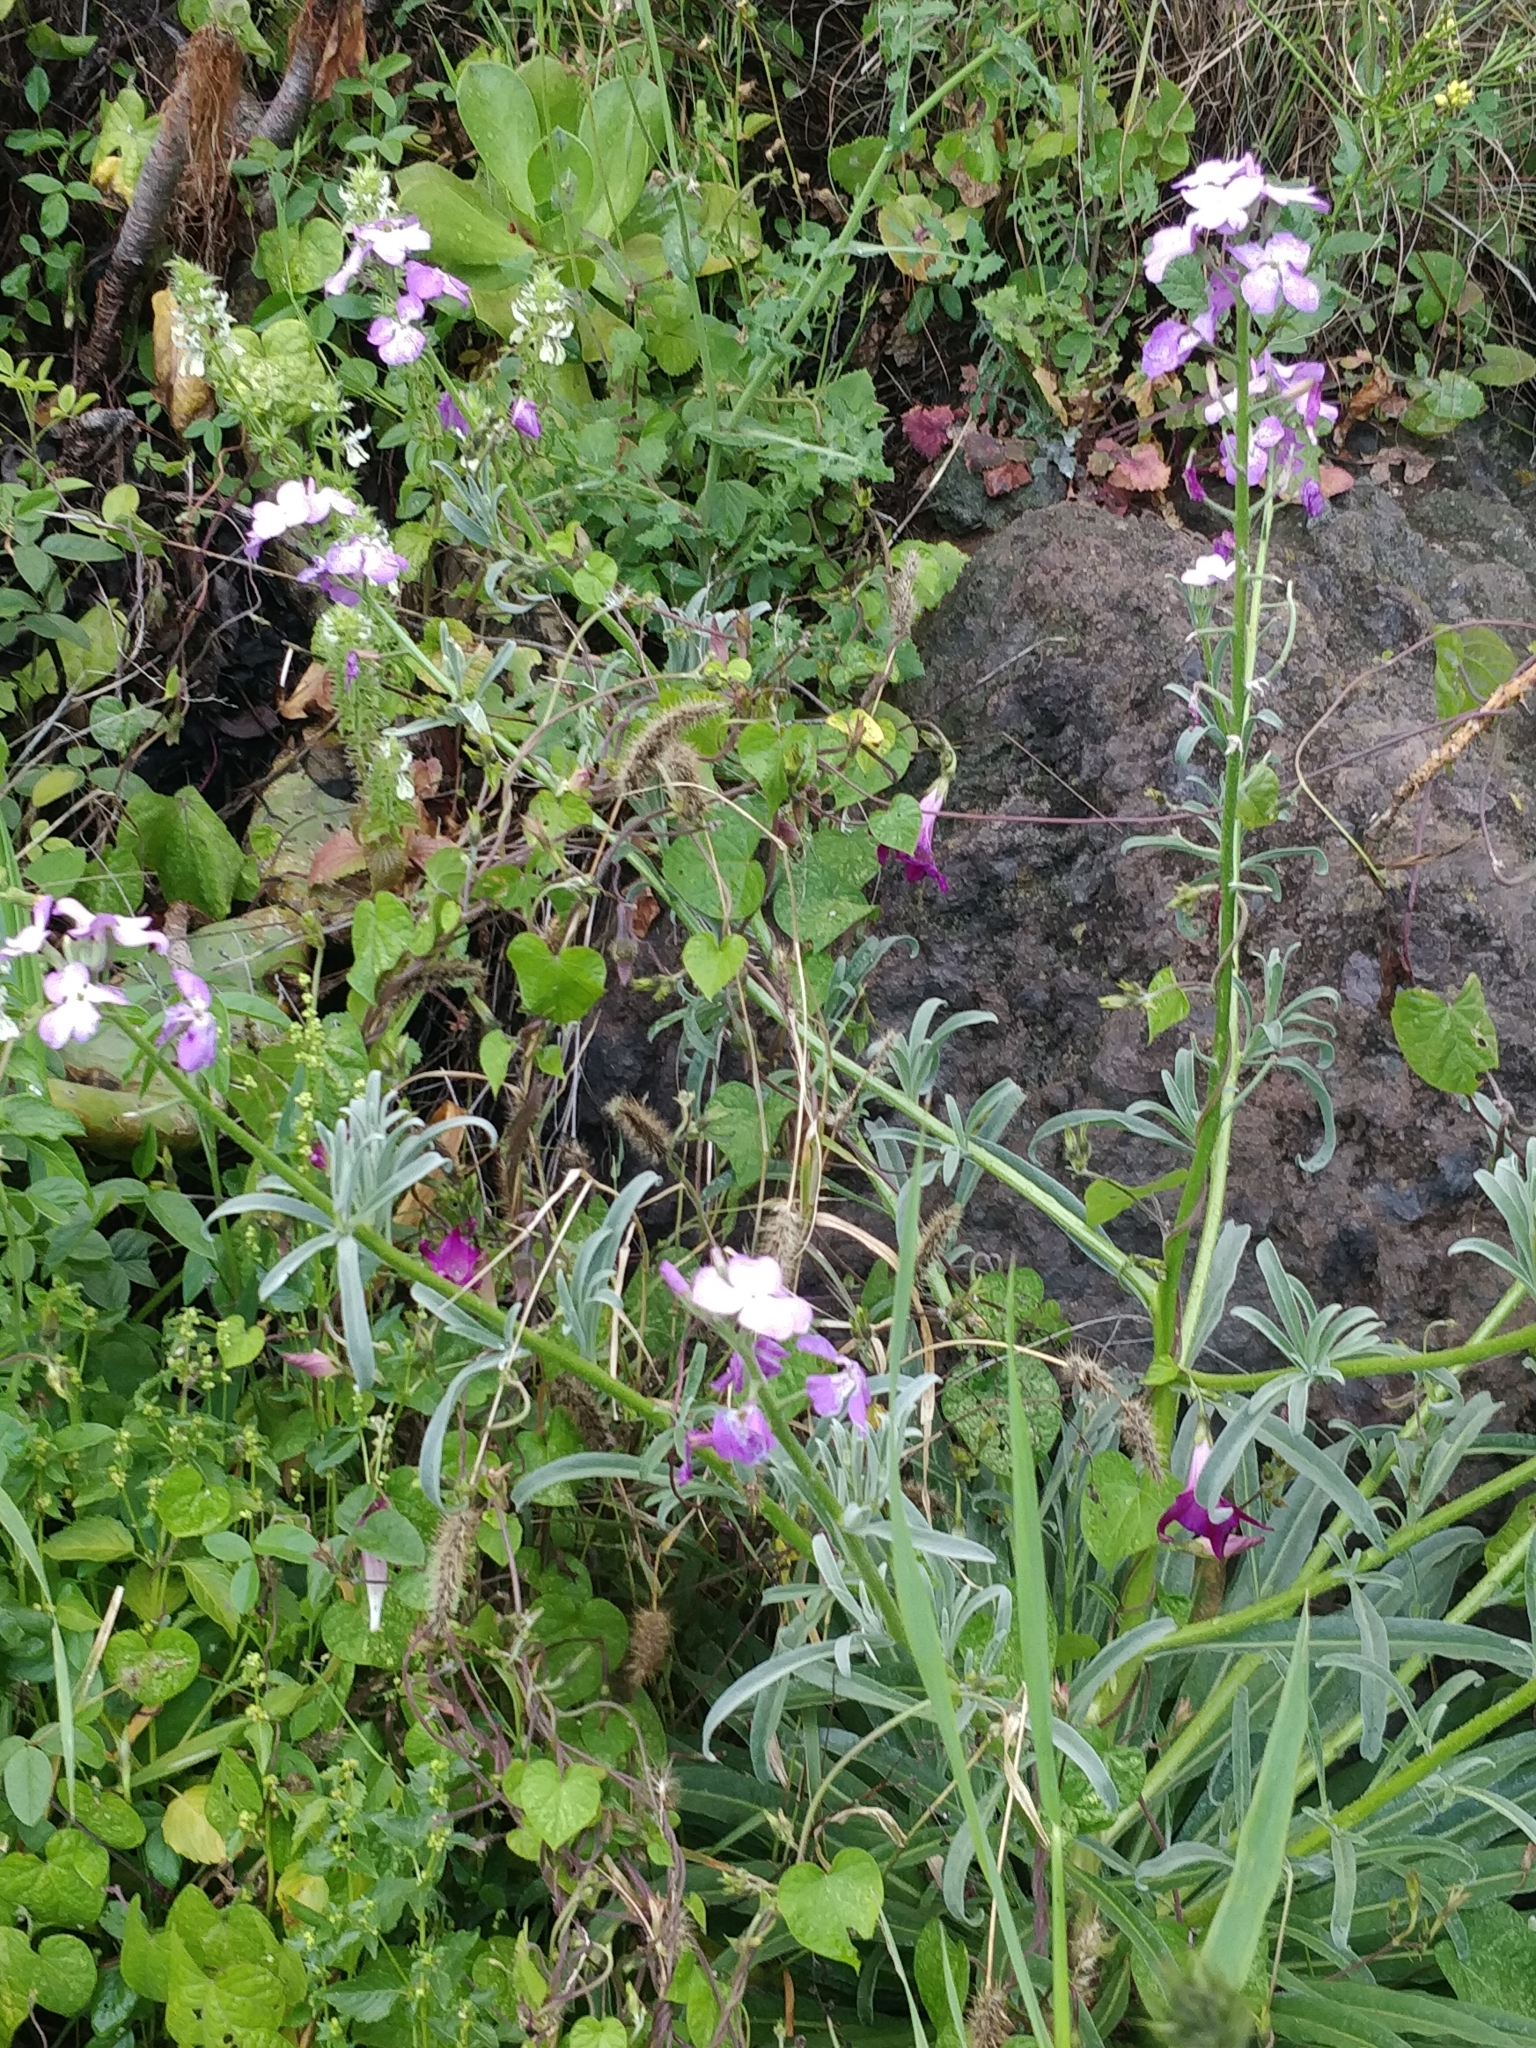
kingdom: Plantae
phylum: Tracheophyta
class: Magnoliopsida
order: Brassicales
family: Brassicaceae
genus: Matthiola
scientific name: Matthiola maderensis
